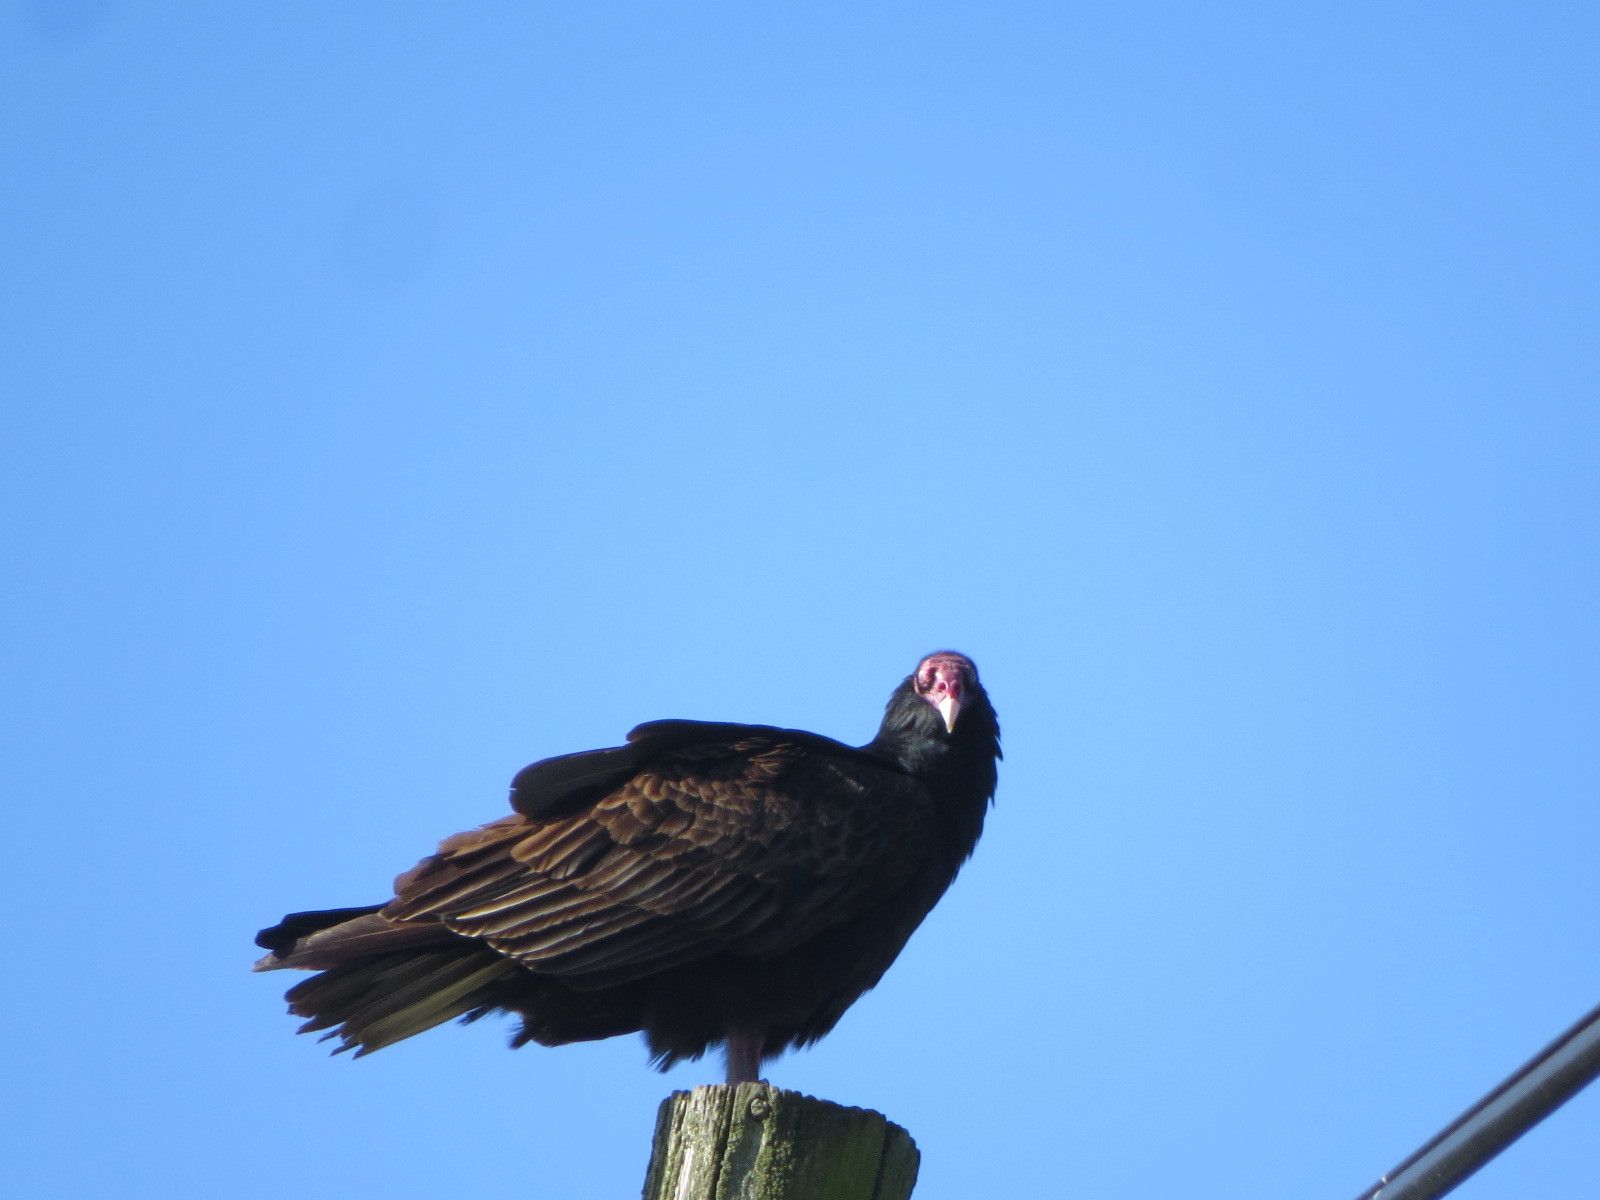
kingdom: Animalia
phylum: Chordata
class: Aves
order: Accipitriformes
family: Cathartidae
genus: Cathartes
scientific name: Cathartes aura
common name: Turkey vulture
